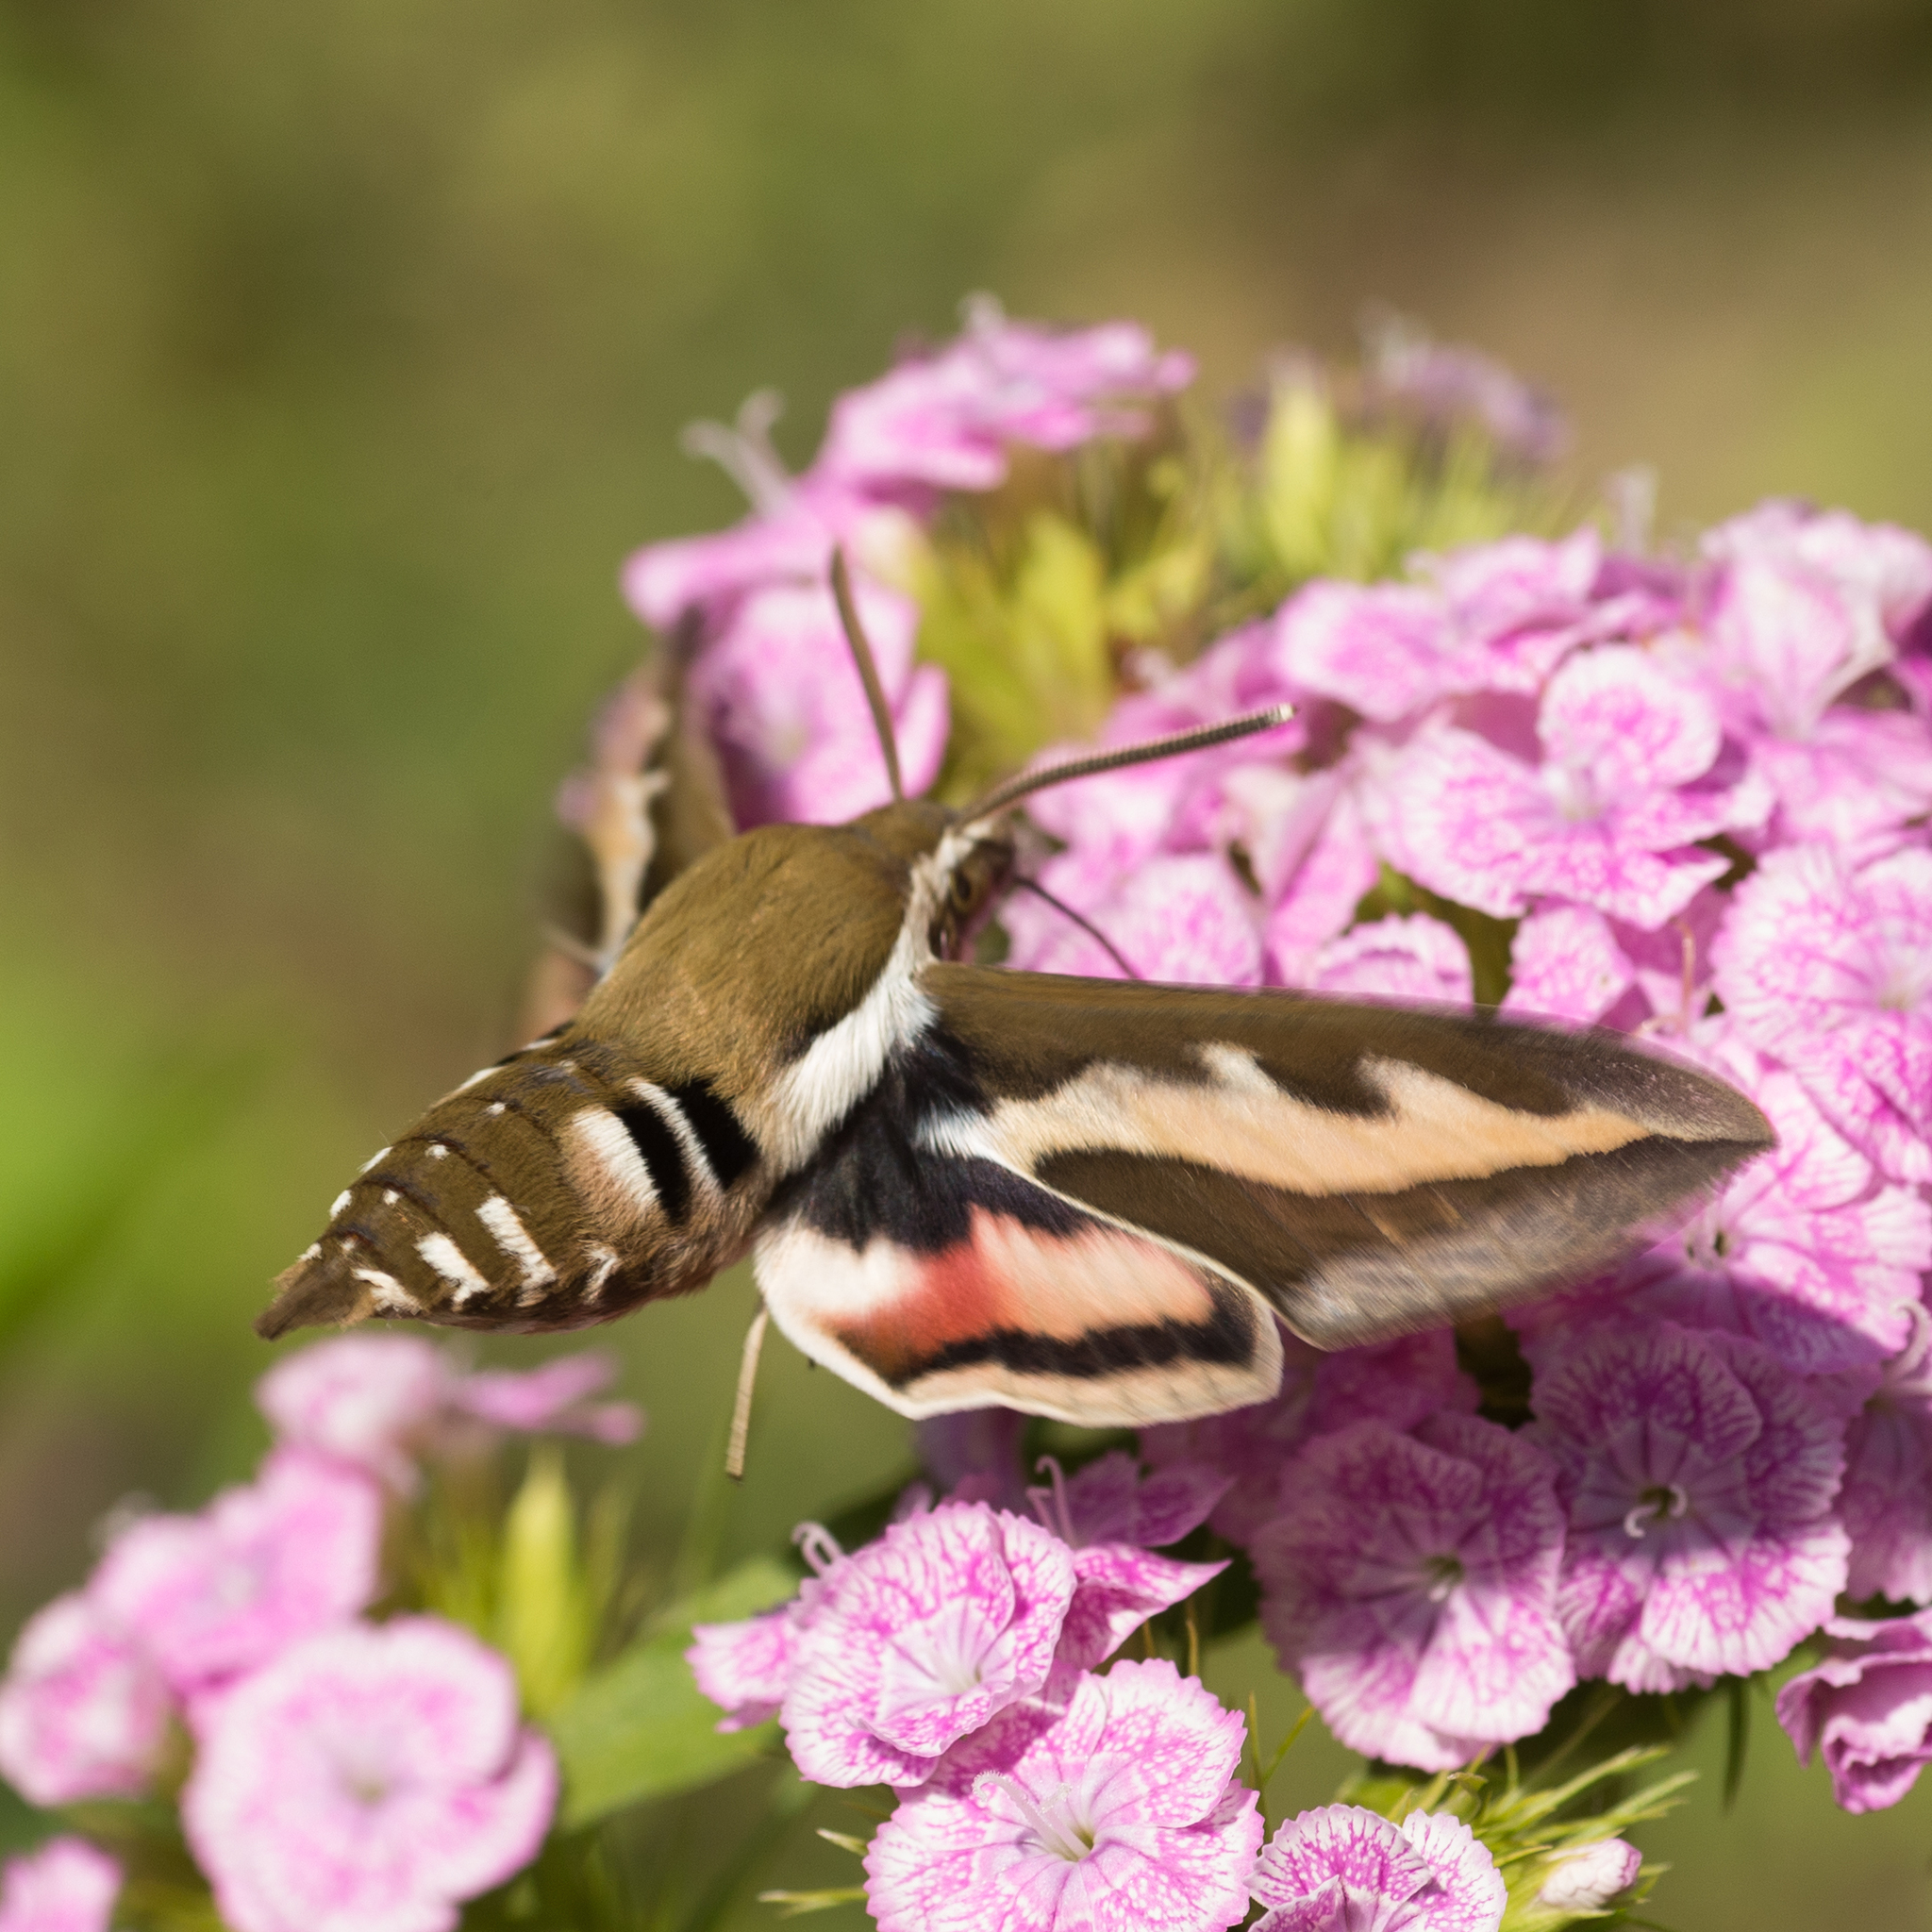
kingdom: Animalia
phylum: Arthropoda
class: Insecta
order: Lepidoptera
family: Sphingidae
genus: Hyles
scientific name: Hyles gallii
